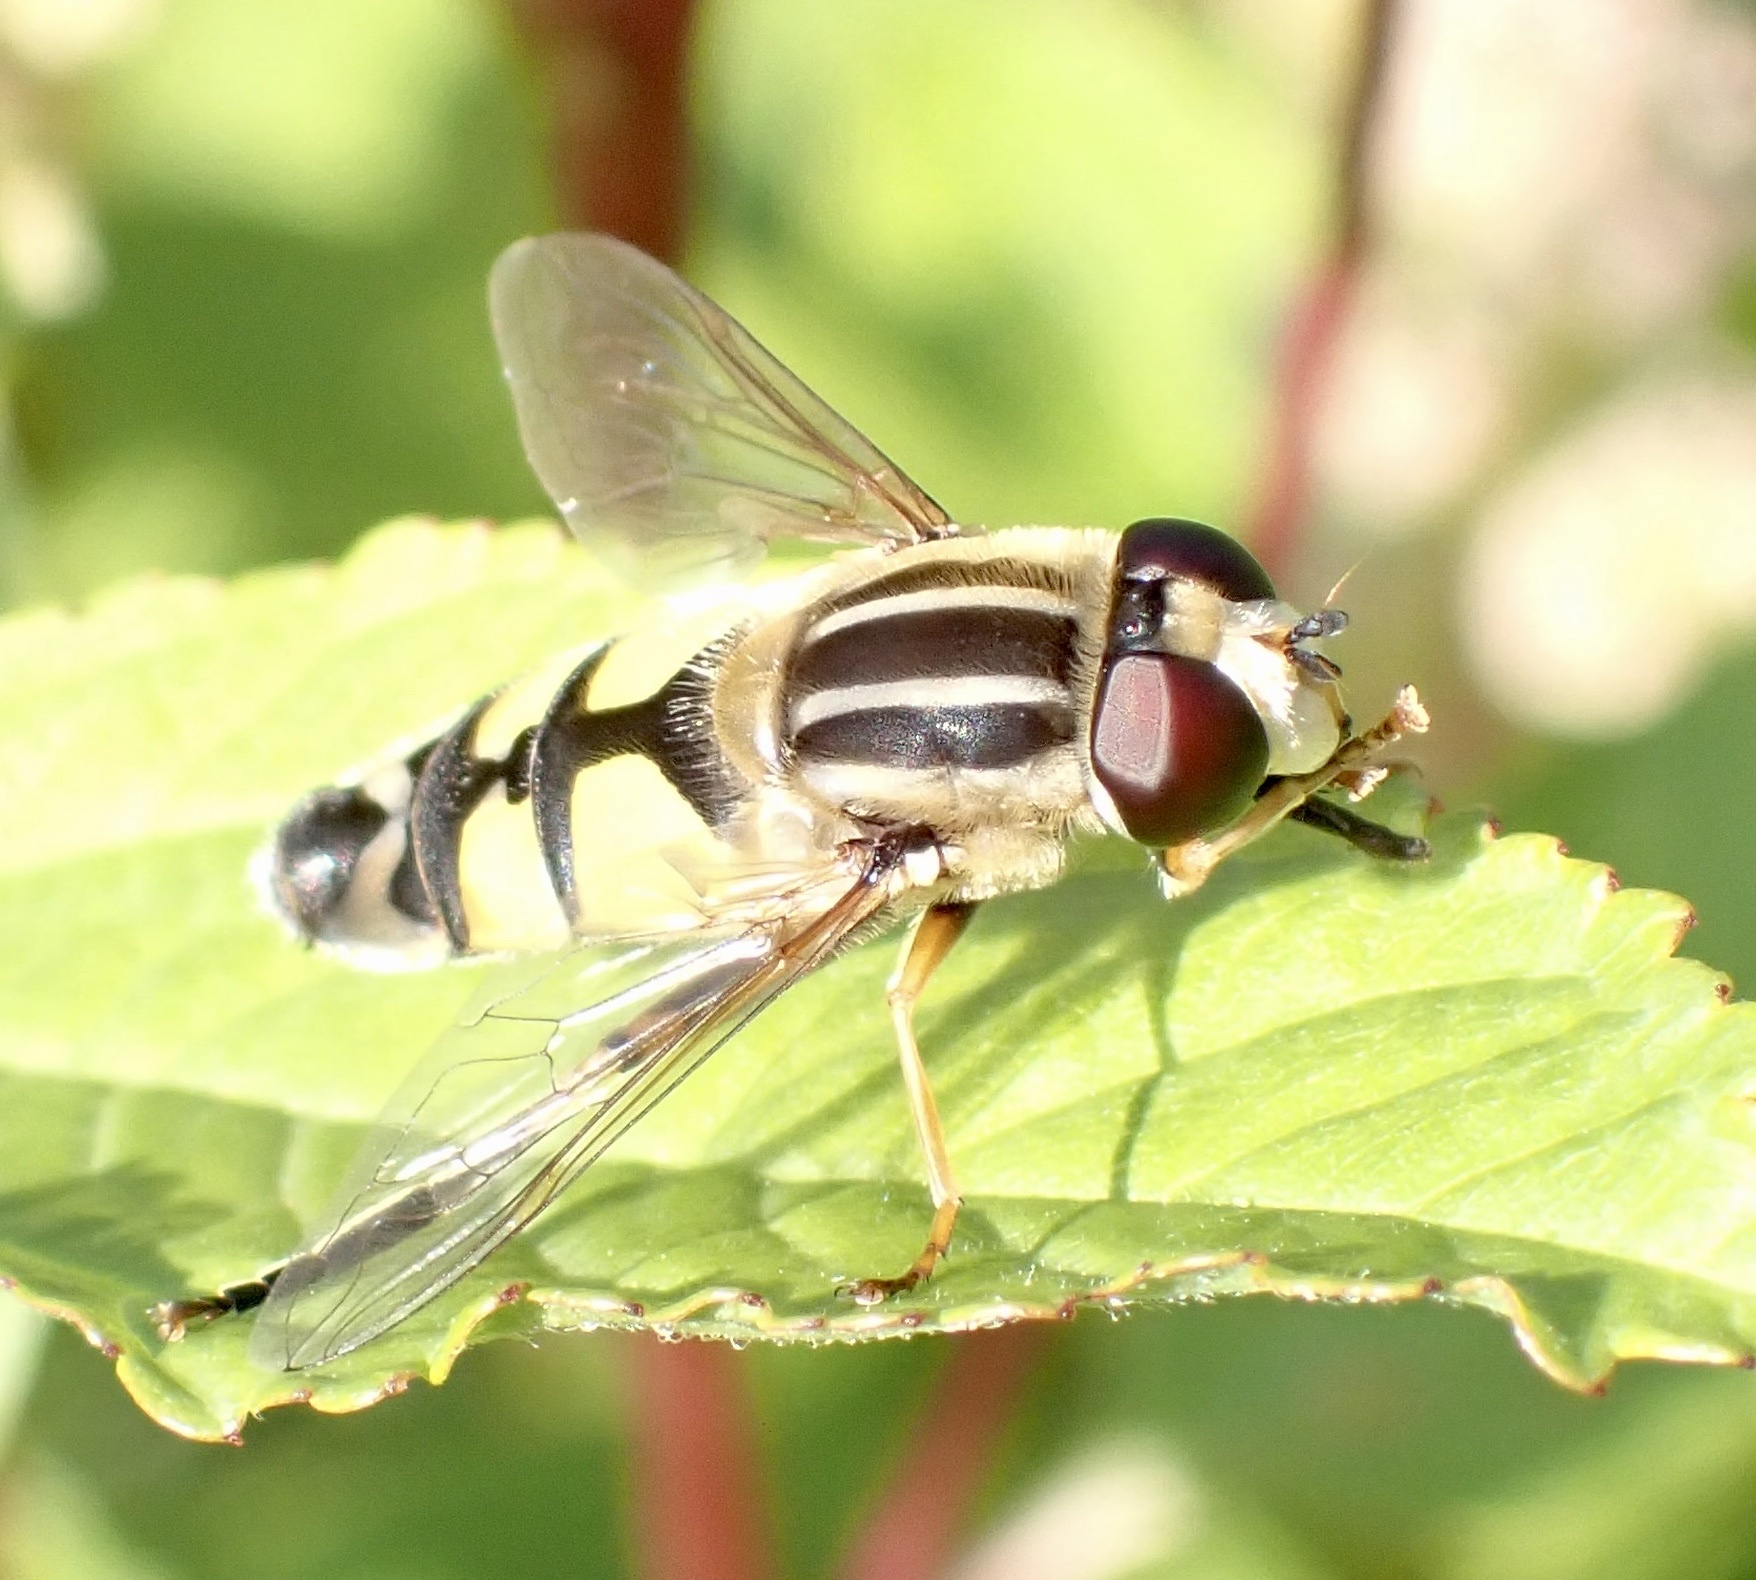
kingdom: Animalia
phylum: Arthropoda
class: Insecta
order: Diptera
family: Syrphidae
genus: Helophilus
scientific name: Helophilus trivittatus
